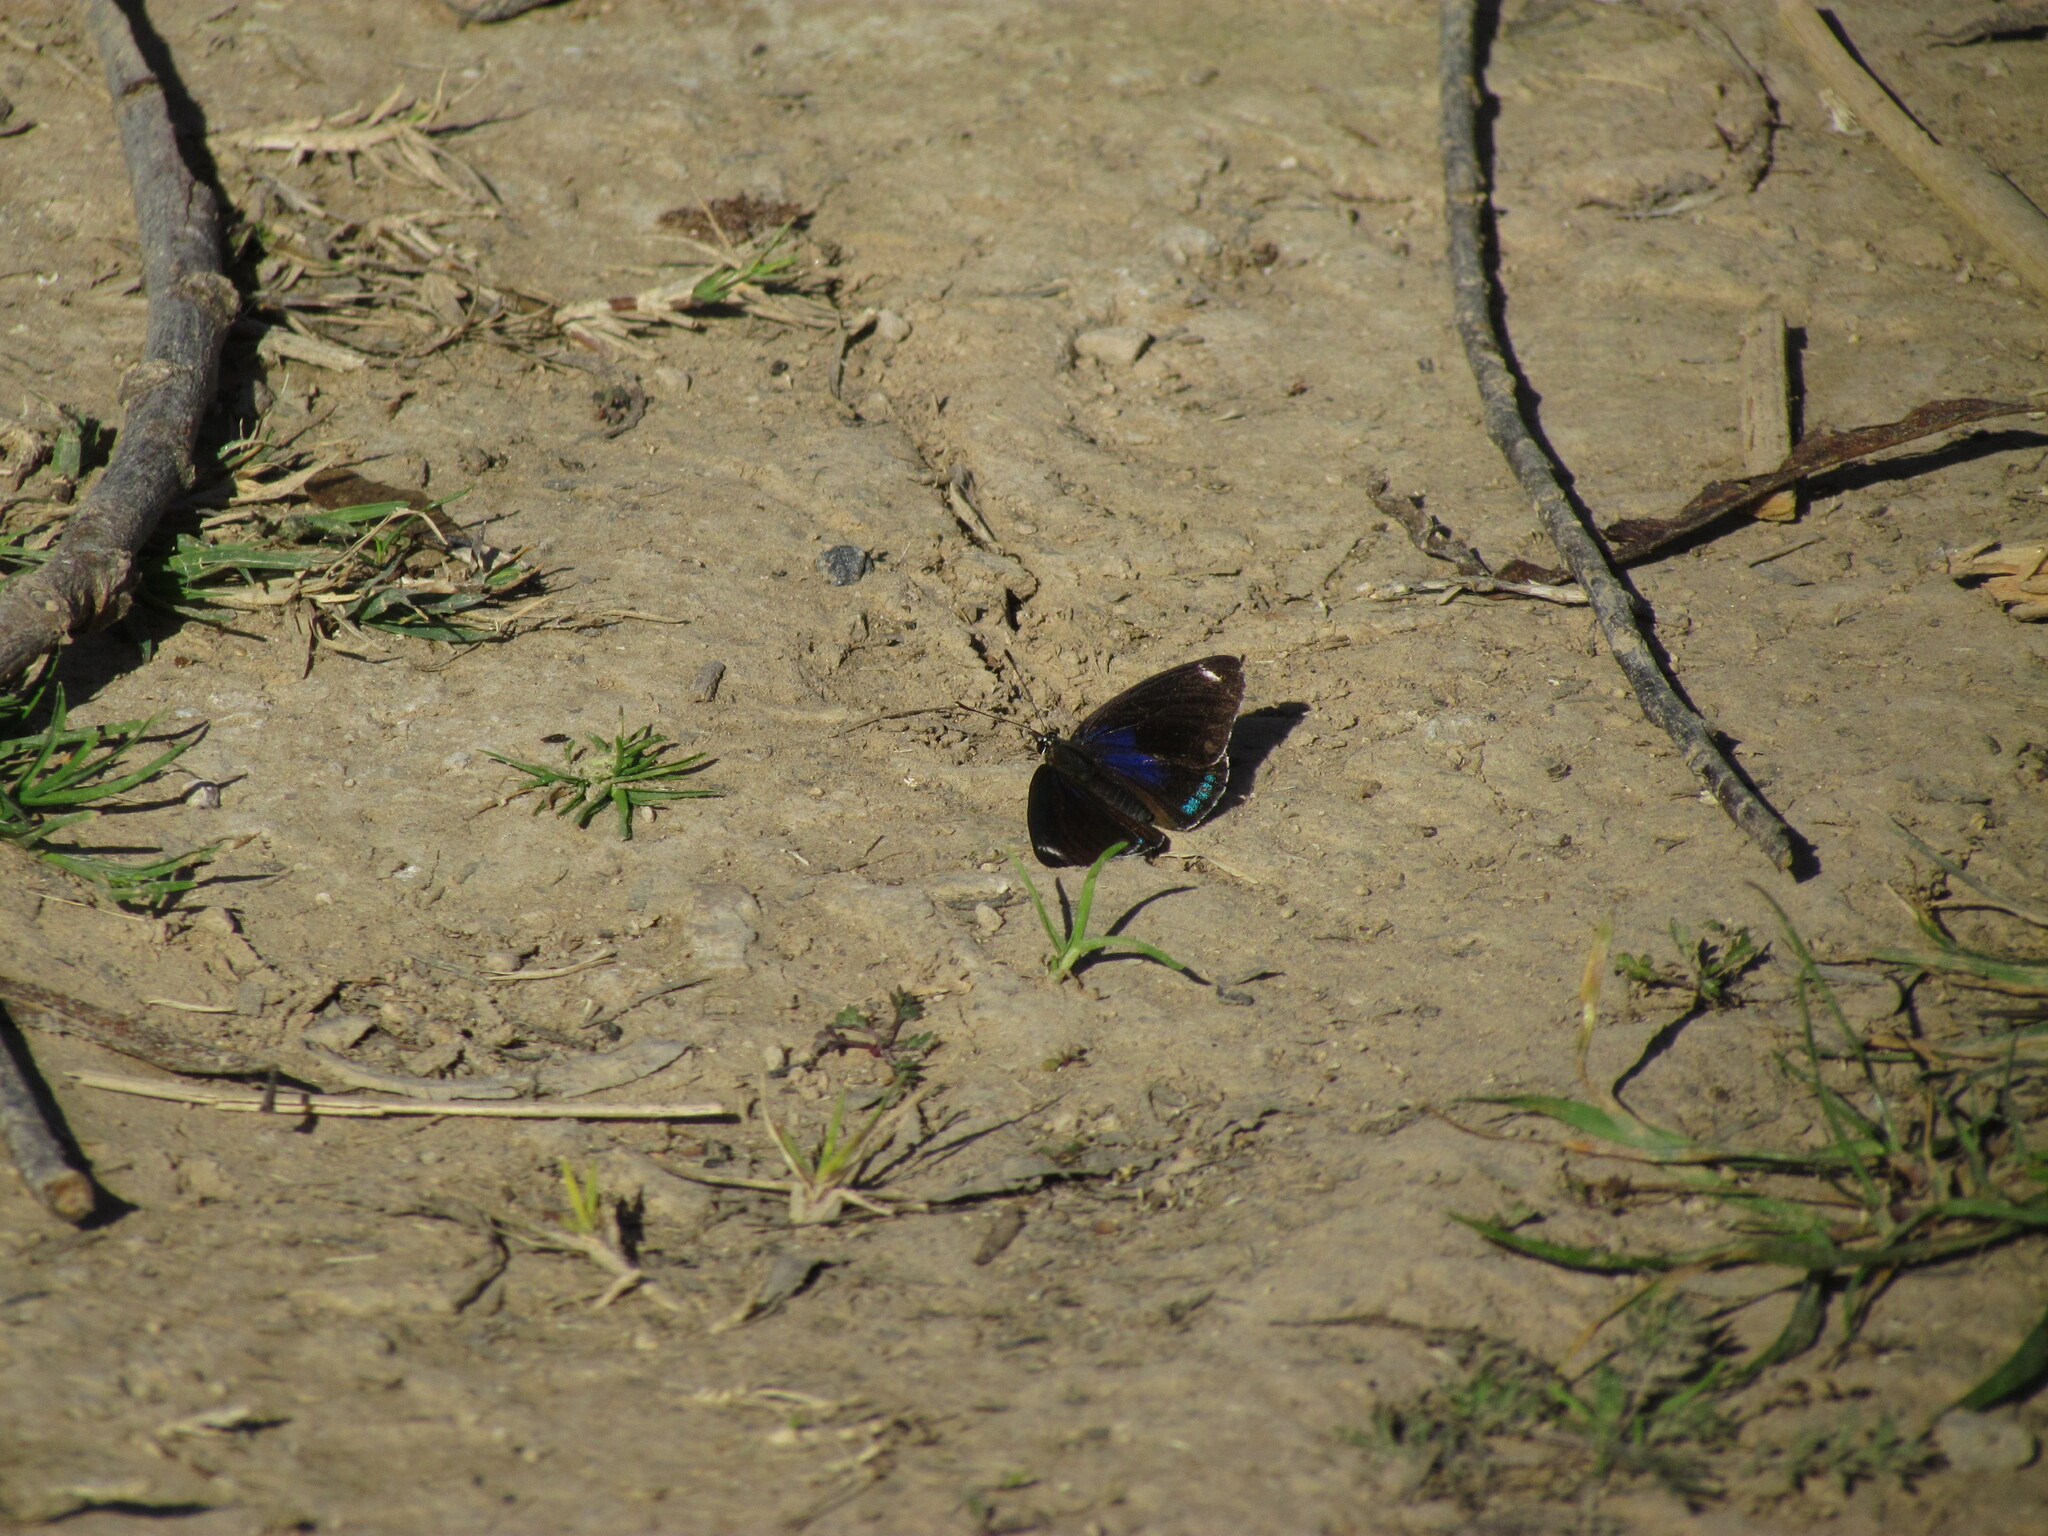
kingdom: Animalia
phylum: Arthropoda
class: Insecta
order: Lepidoptera
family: Nymphalidae
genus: Diaethria
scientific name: Diaethria candrena
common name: Number eighty
